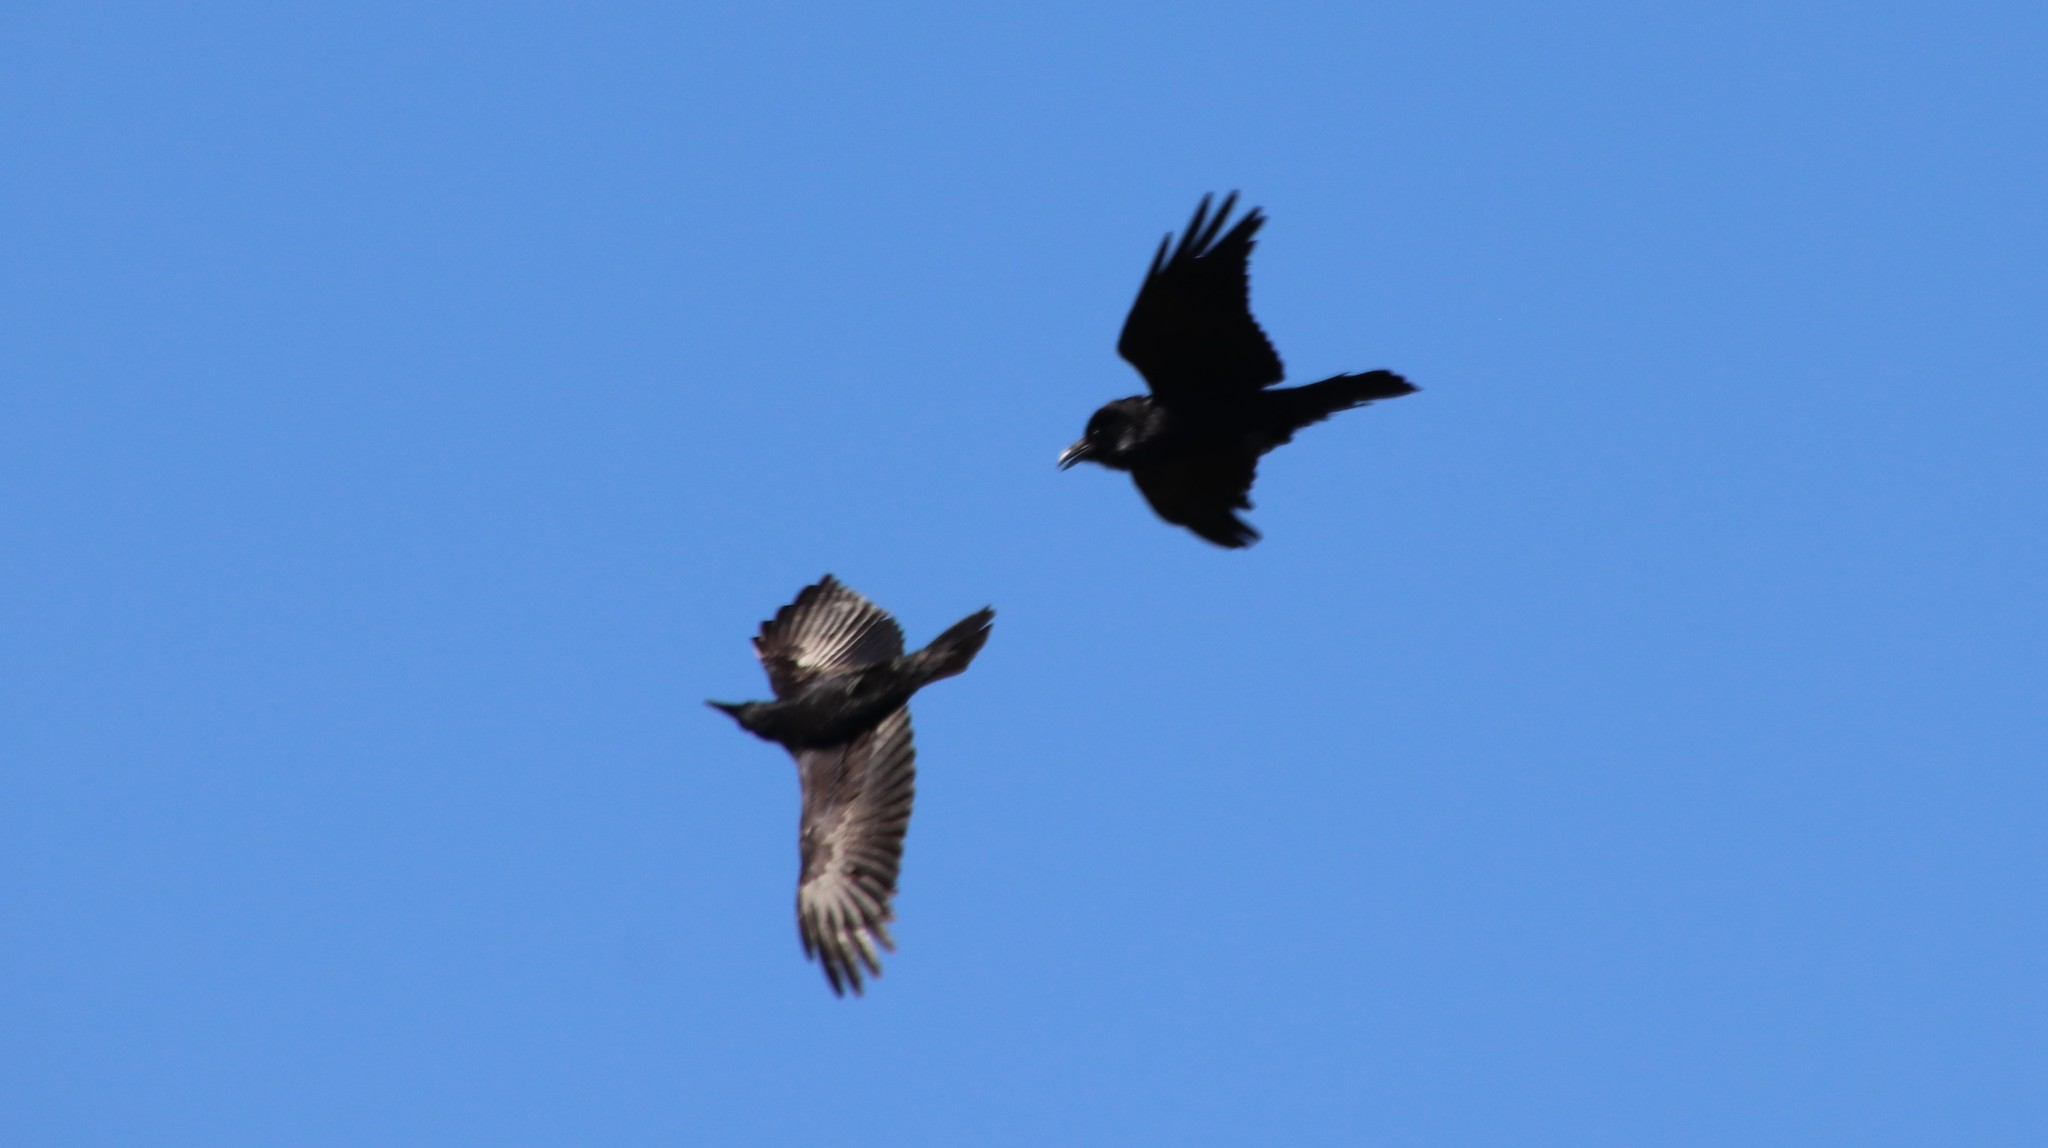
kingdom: Animalia
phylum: Chordata
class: Aves
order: Passeriformes
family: Corvidae
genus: Corvus
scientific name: Corvus corax
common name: Common raven
